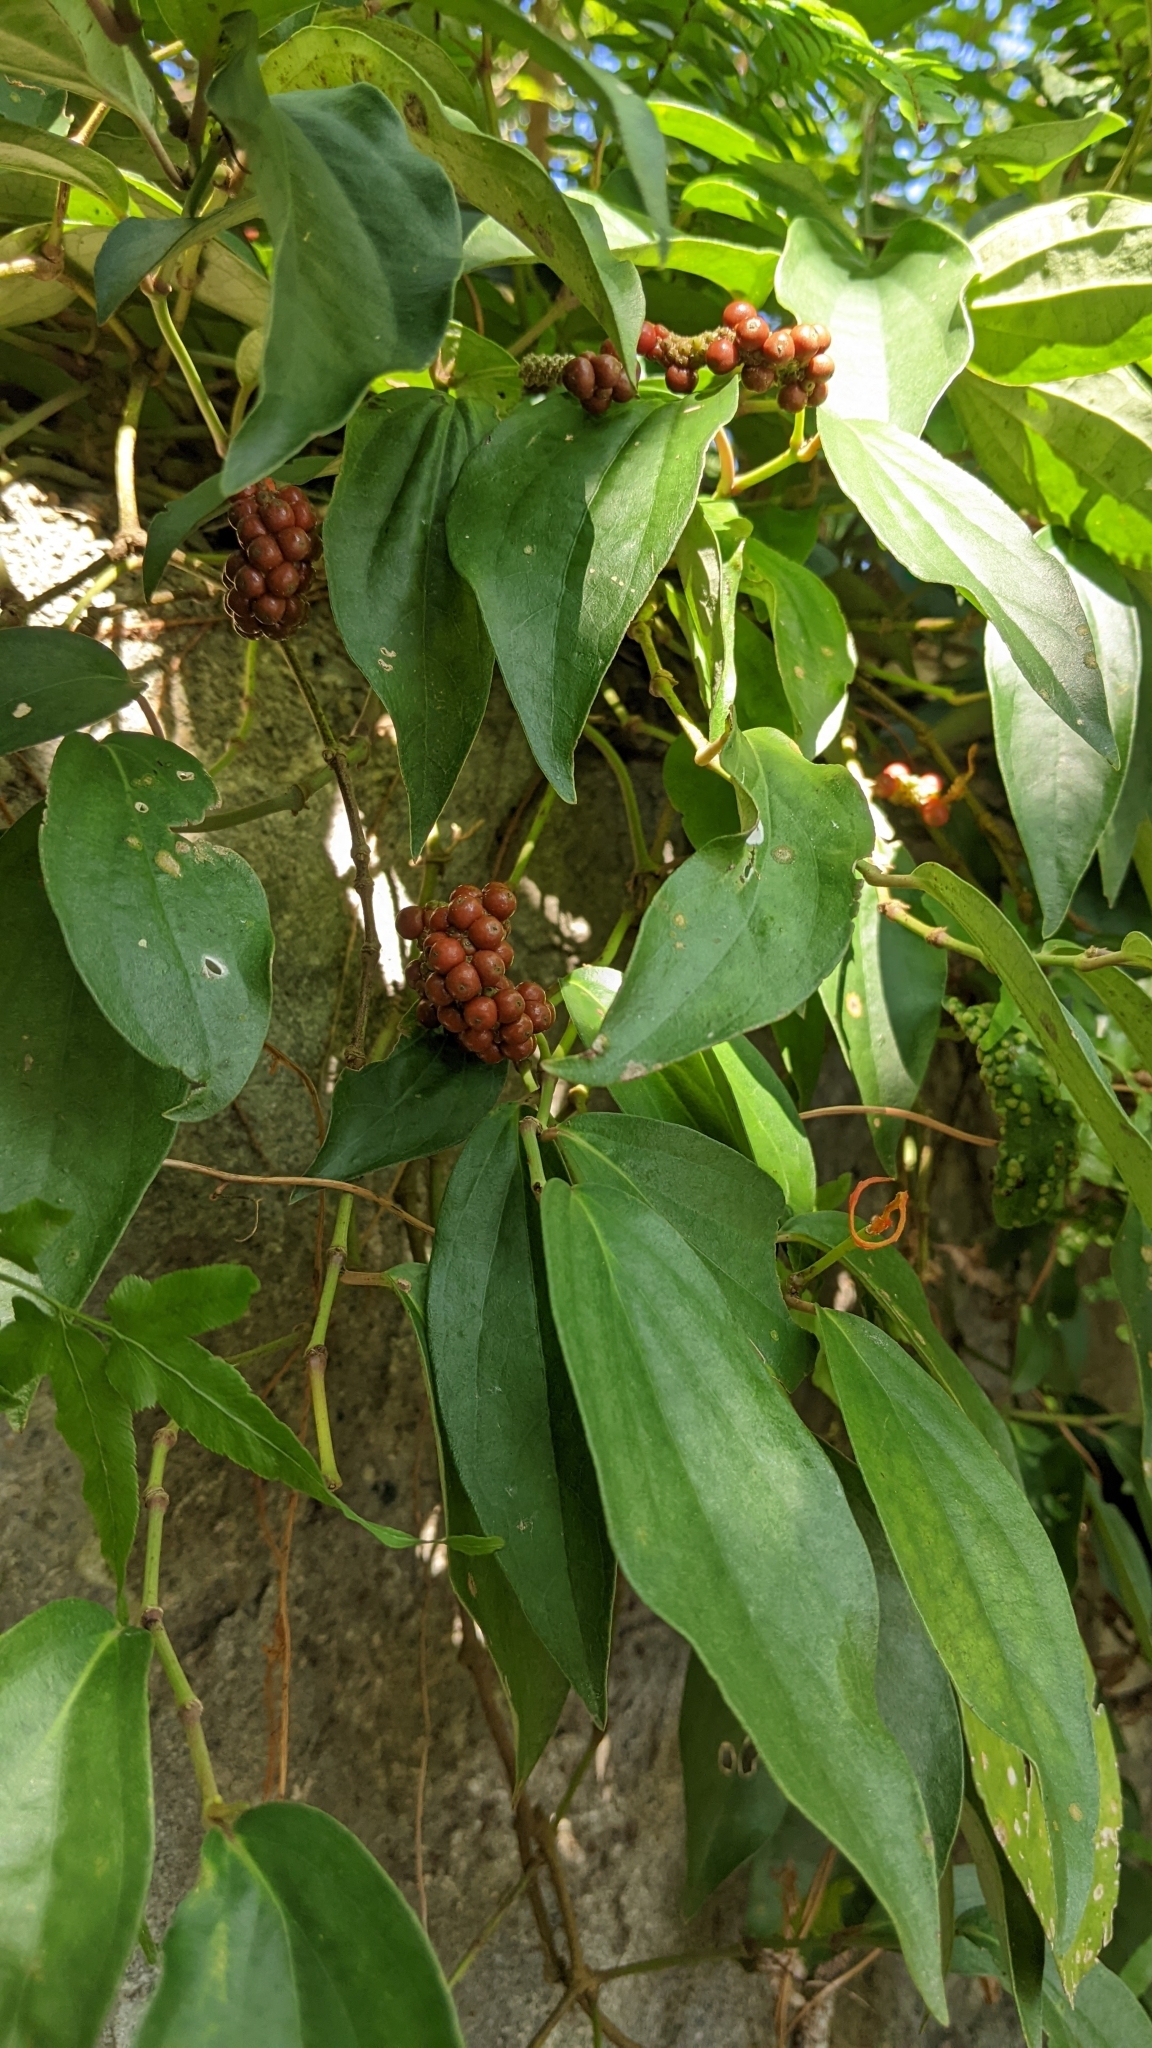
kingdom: Plantae
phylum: Tracheophyta
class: Magnoliopsida
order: Piperales
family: Piperaceae
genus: Piper
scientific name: Piper kadsura
